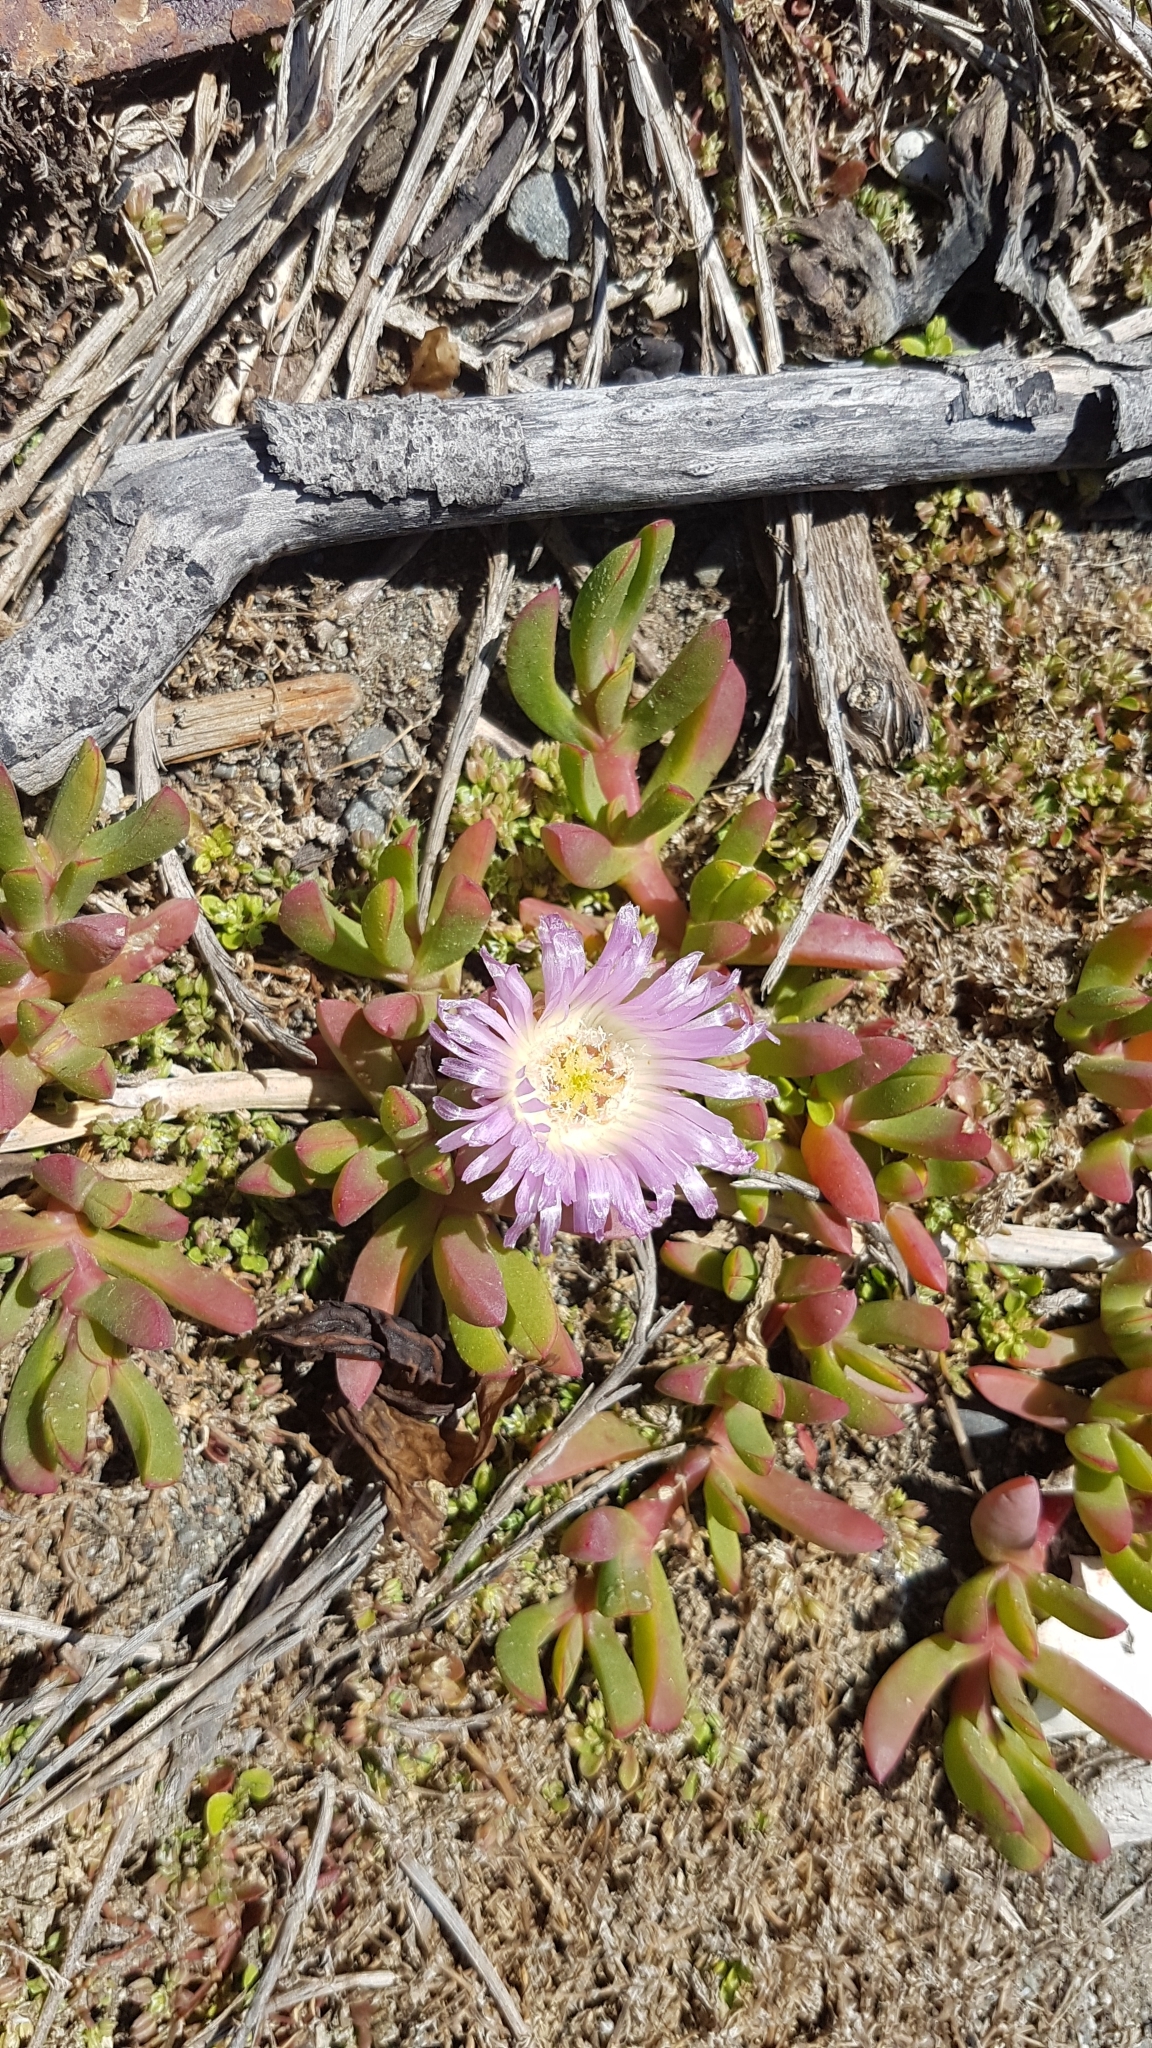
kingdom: Plantae
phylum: Tracheophyta
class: Magnoliopsida
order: Caryophyllales
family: Aizoaceae
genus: Disphyma
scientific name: Disphyma australe
